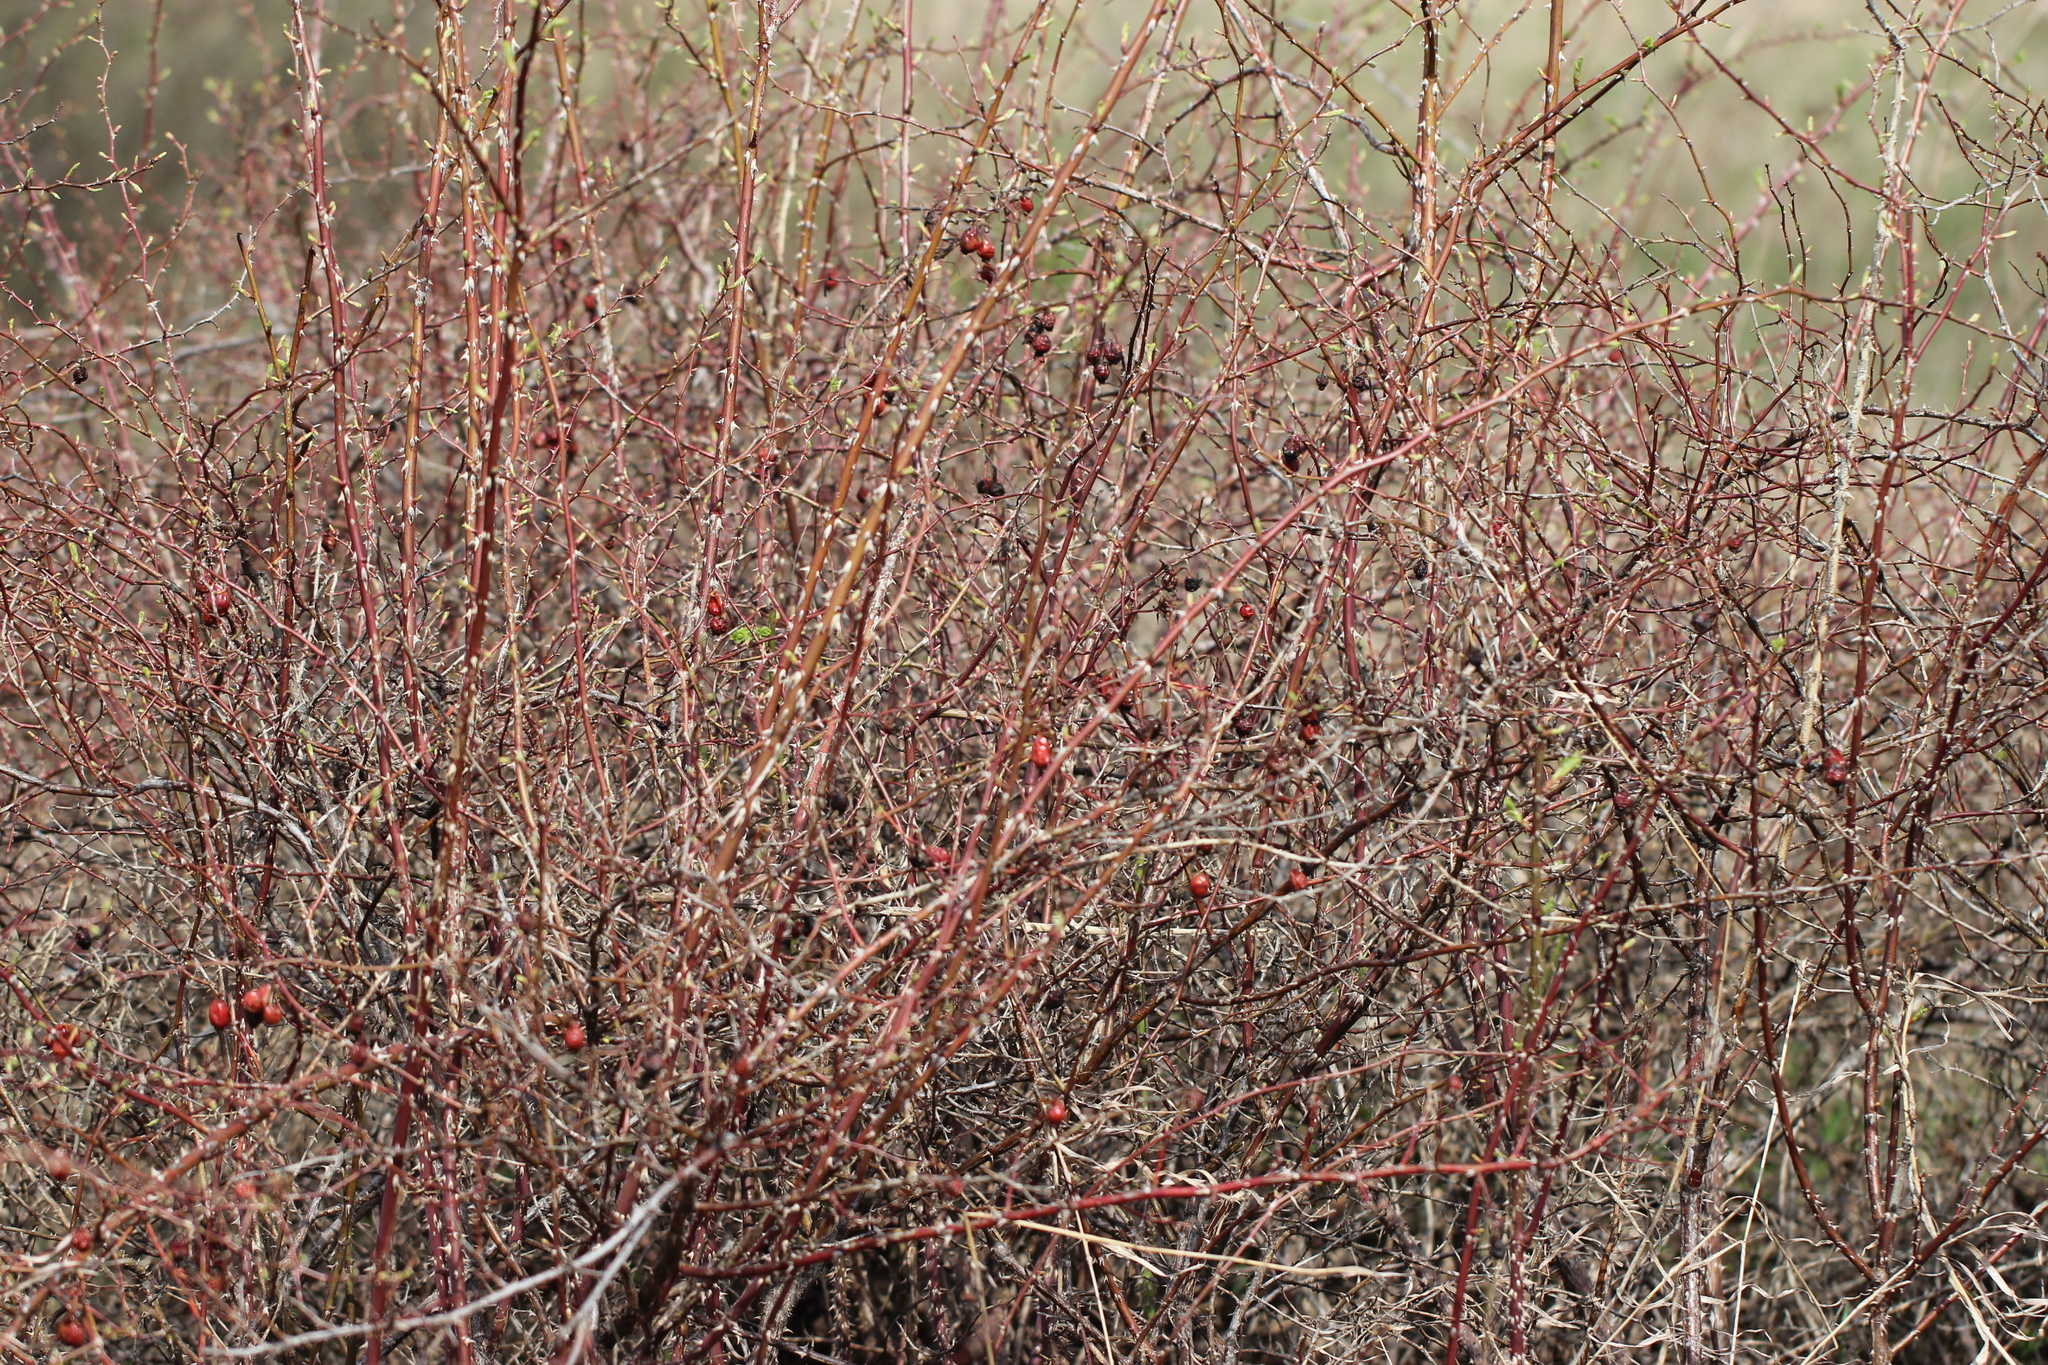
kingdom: Plantae
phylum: Tracheophyta
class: Magnoliopsida
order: Rosales
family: Rosaceae
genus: Rosa
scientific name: Rosa
